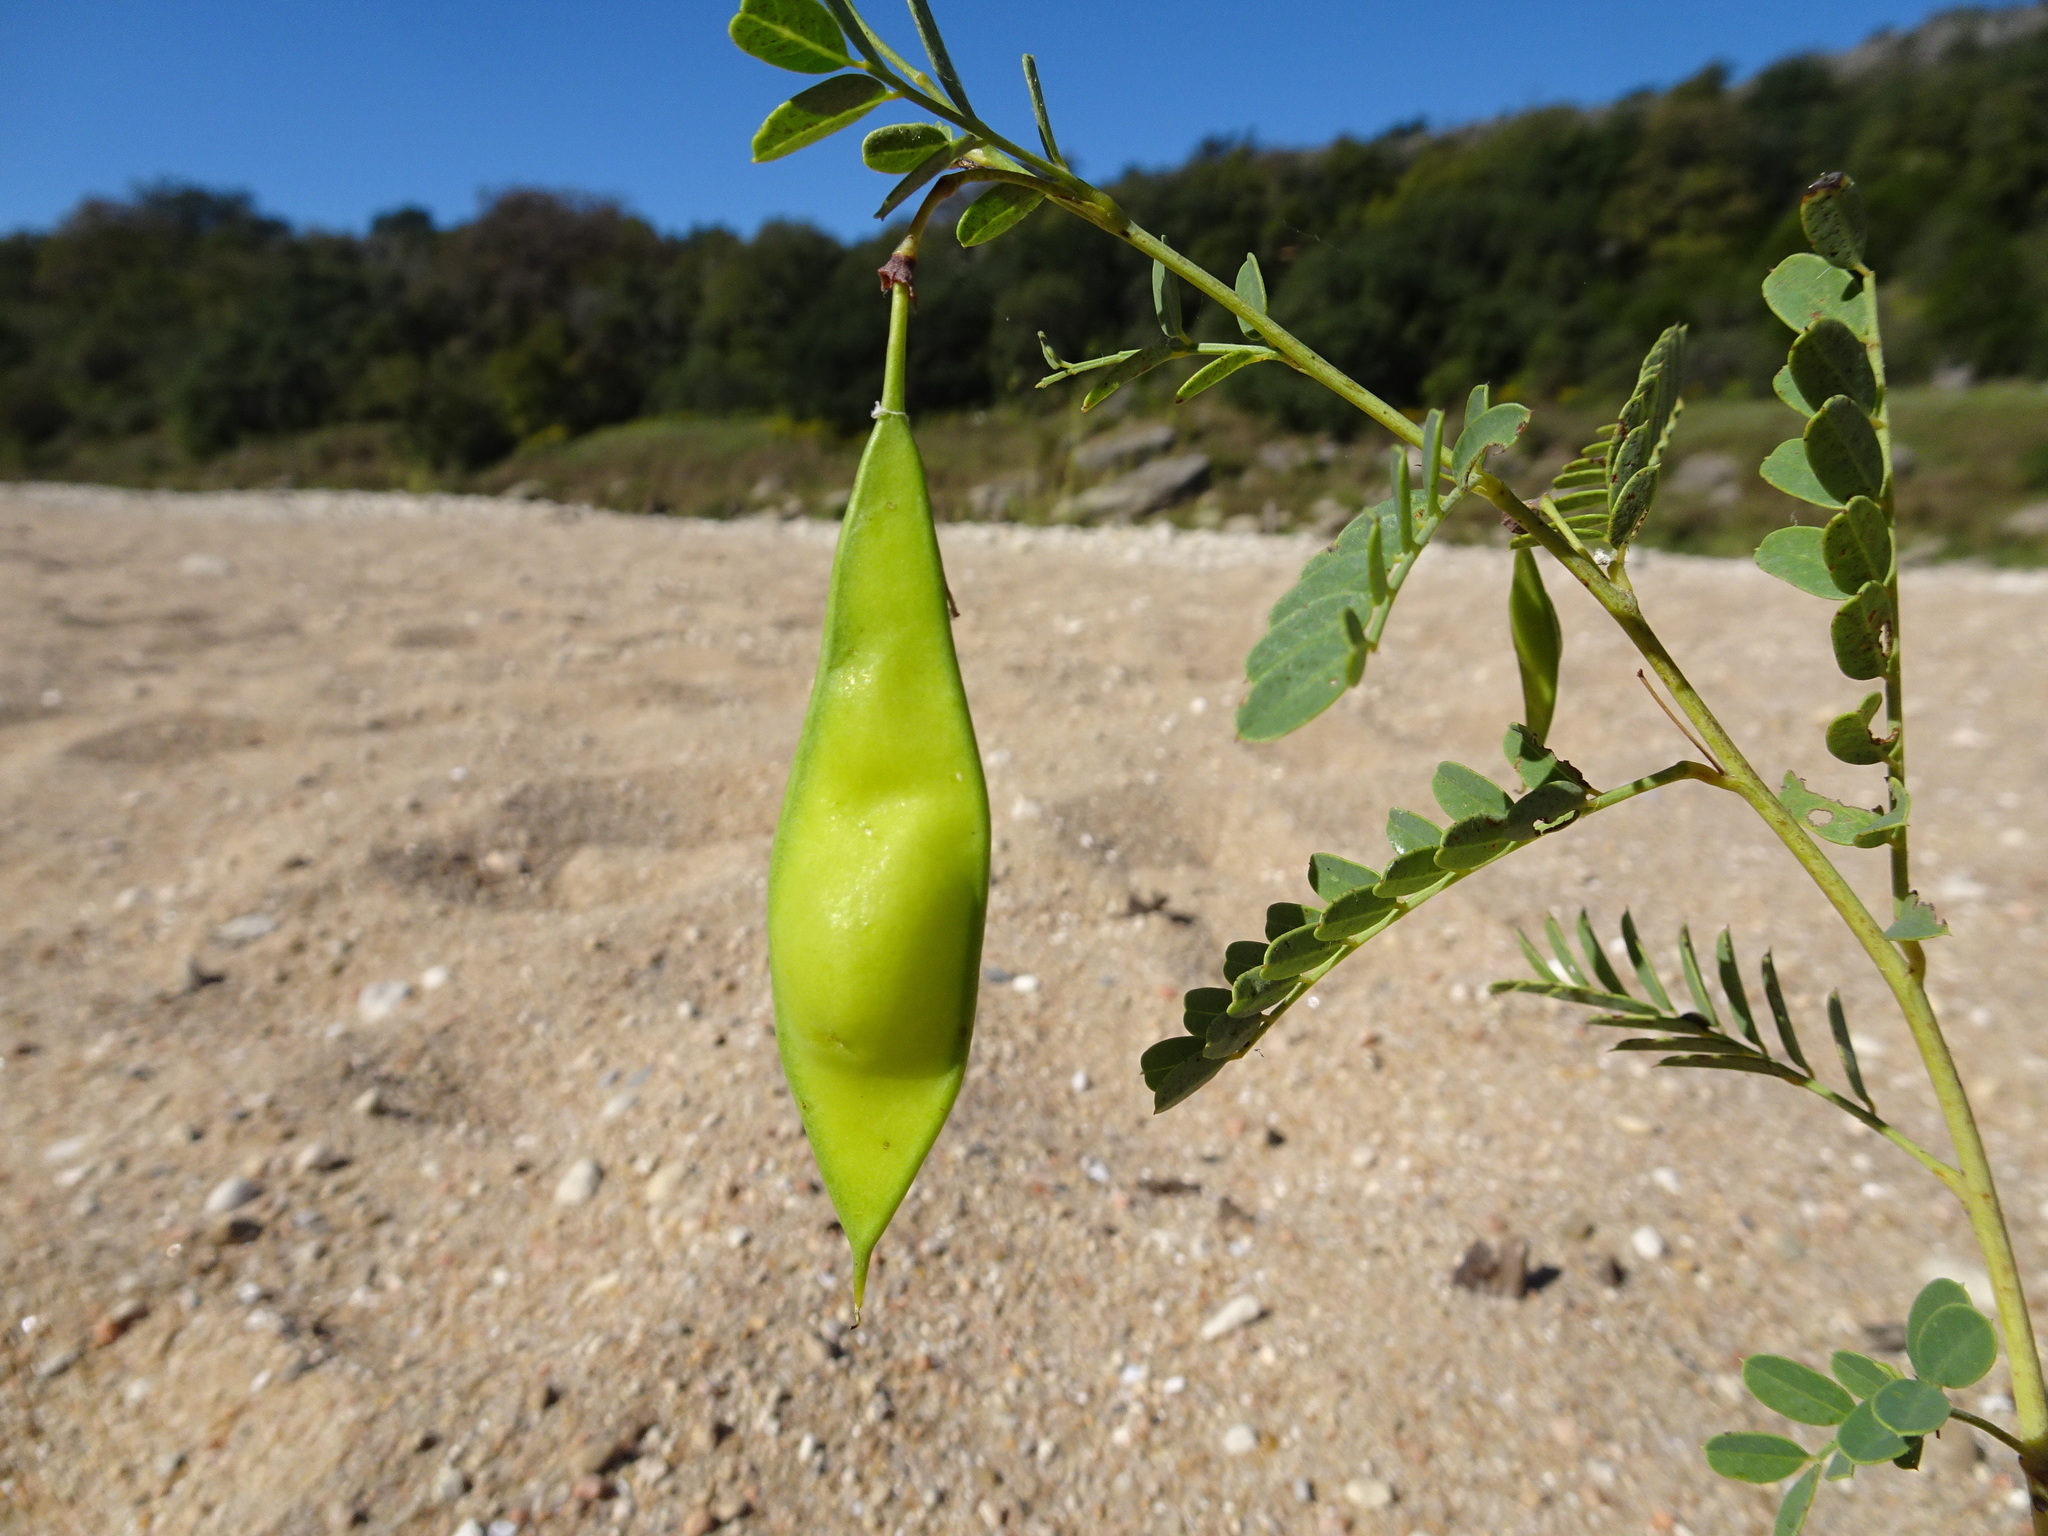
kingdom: Plantae
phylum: Tracheophyta
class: Magnoliopsida
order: Fabales
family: Fabaceae
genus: Sesbania
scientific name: Sesbania vesicaria
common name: Bagpod
